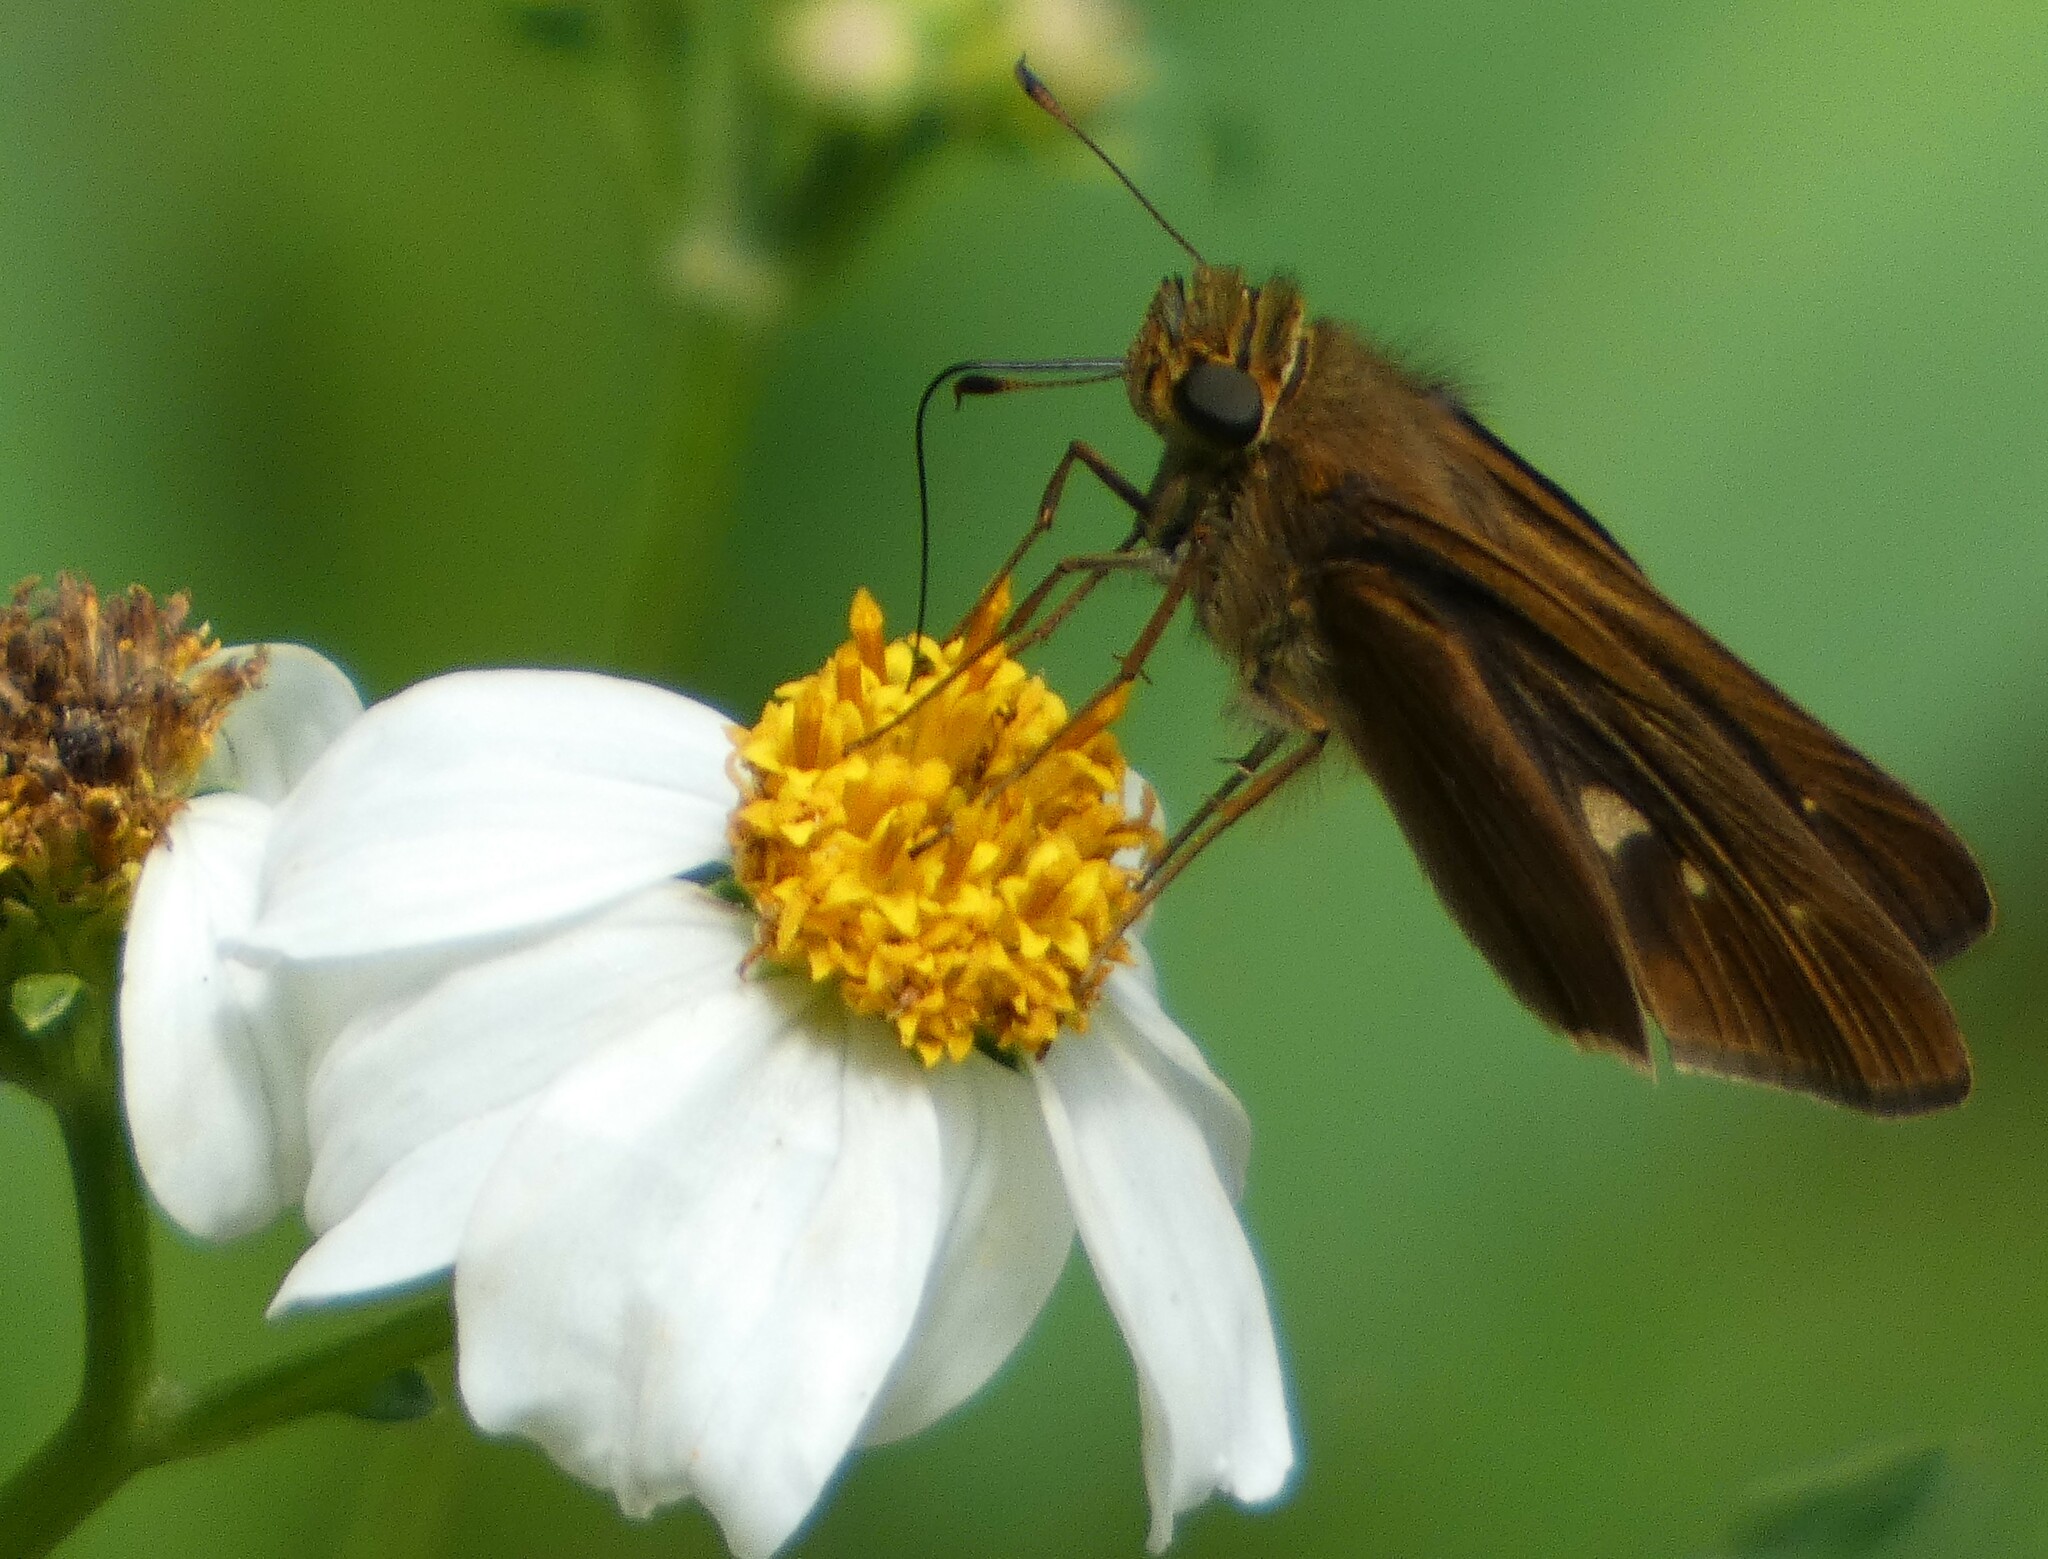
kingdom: Animalia
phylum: Arthropoda
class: Insecta
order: Lepidoptera
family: Hesperiidae
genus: Panoquina
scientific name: Panoquina ocola
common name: Ocola skipper
